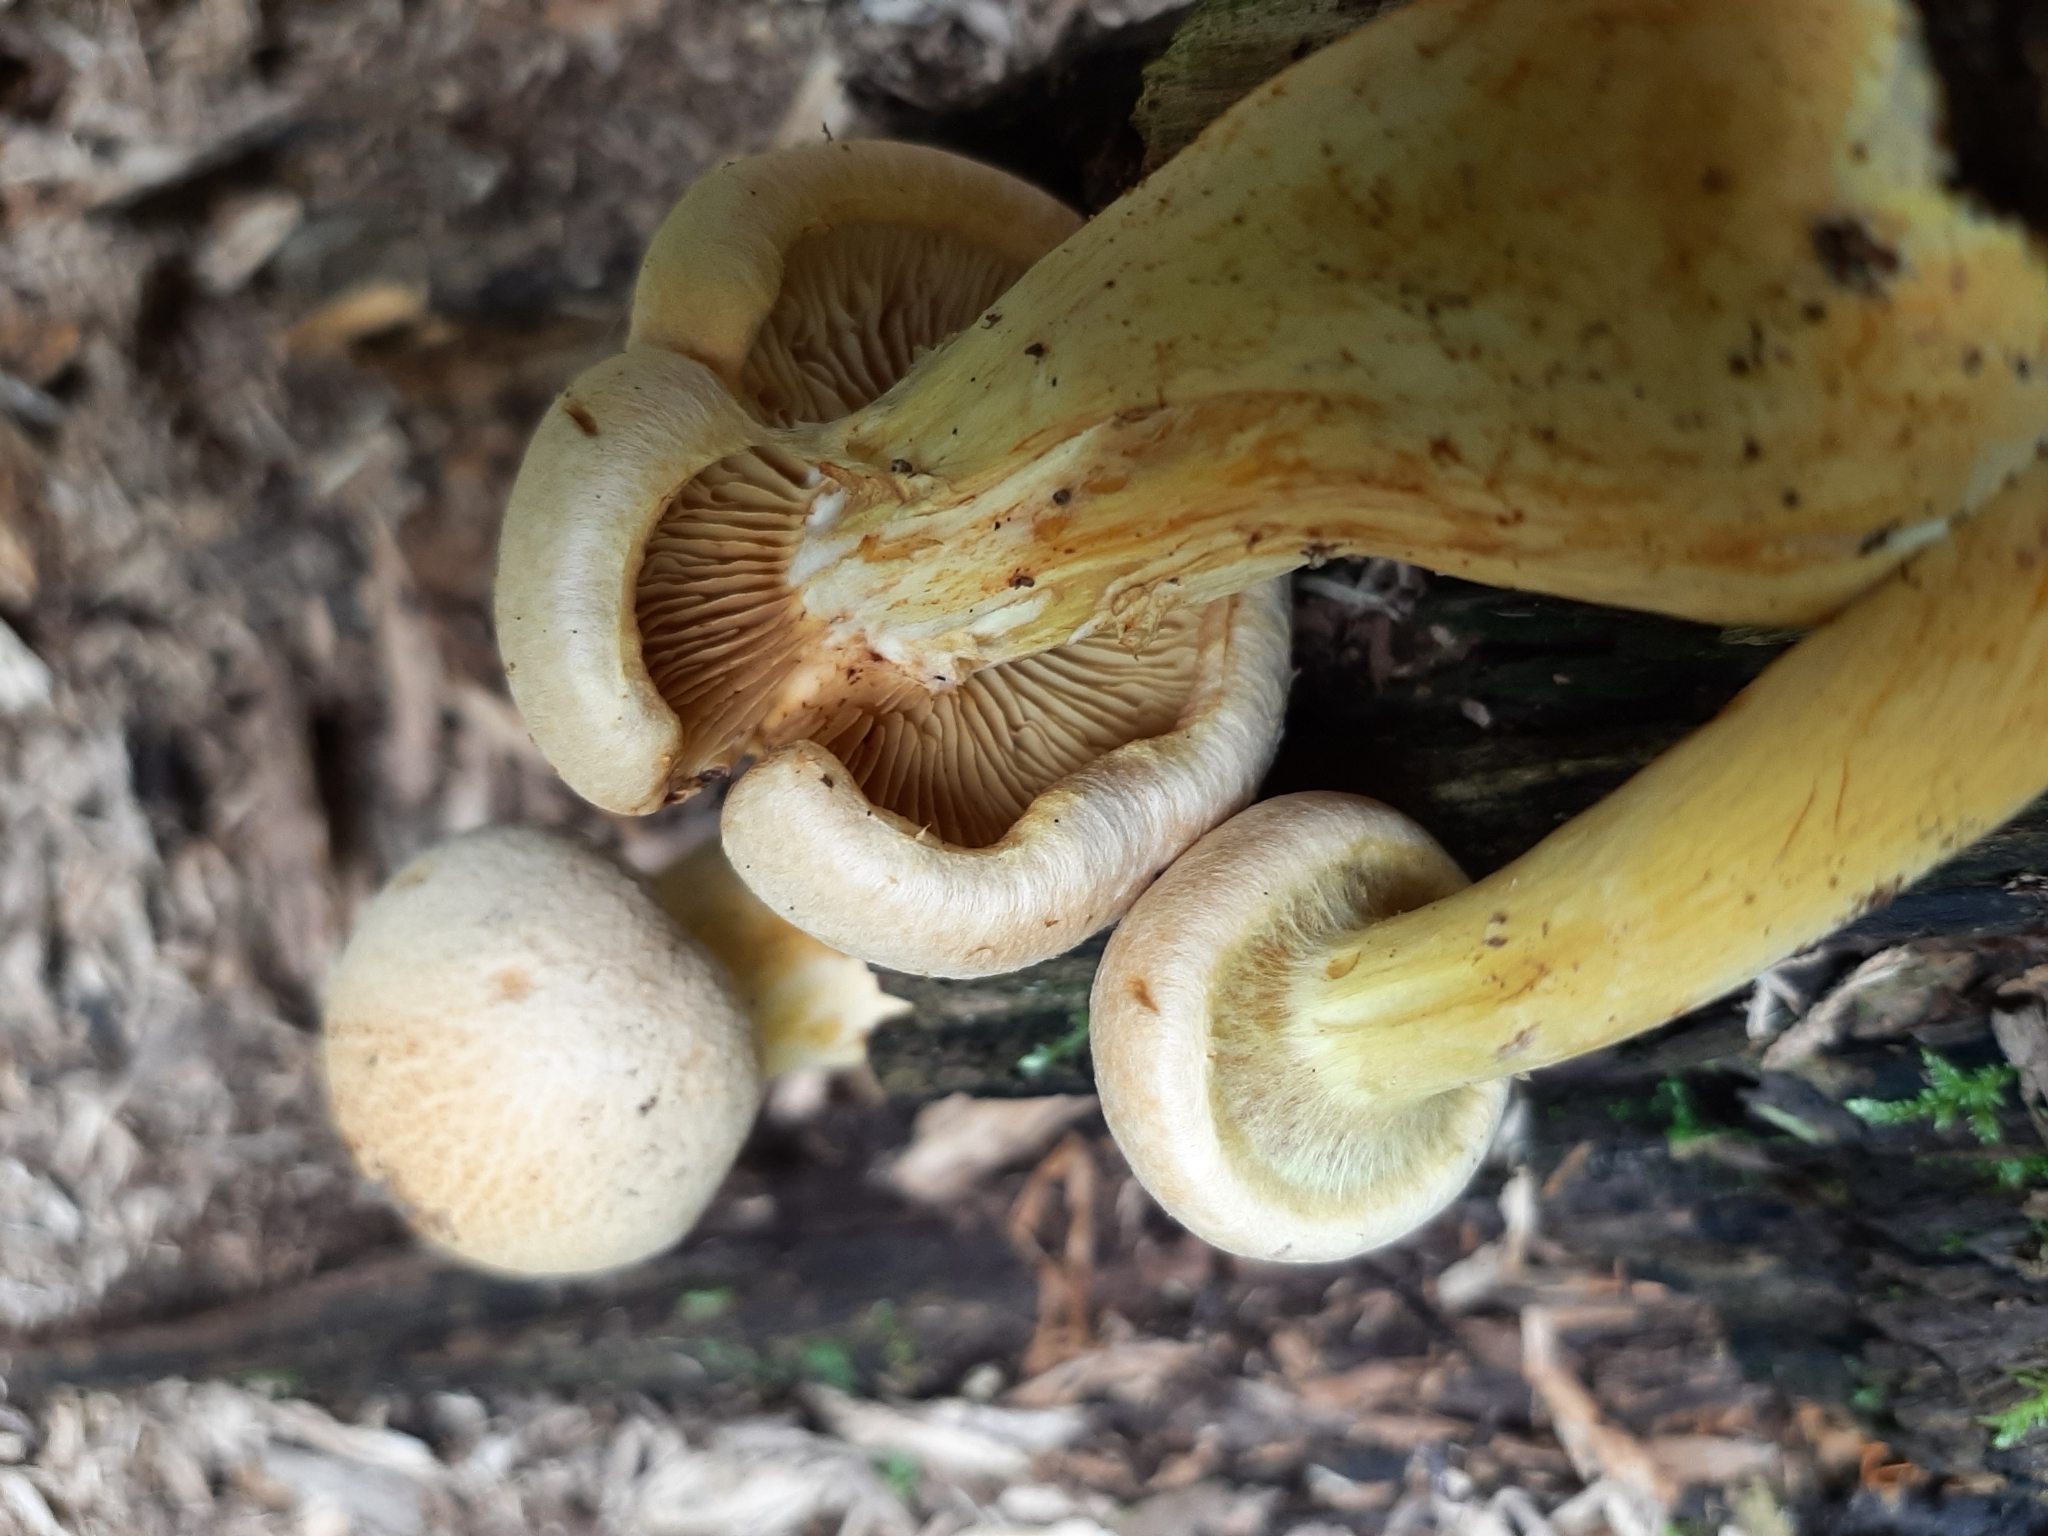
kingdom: Fungi
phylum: Basidiomycota
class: Agaricomycetes
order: Agaricales
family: Hymenogastraceae
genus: Gymnopilus
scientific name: Gymnopilus luteus
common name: Yellow gymnopilus
